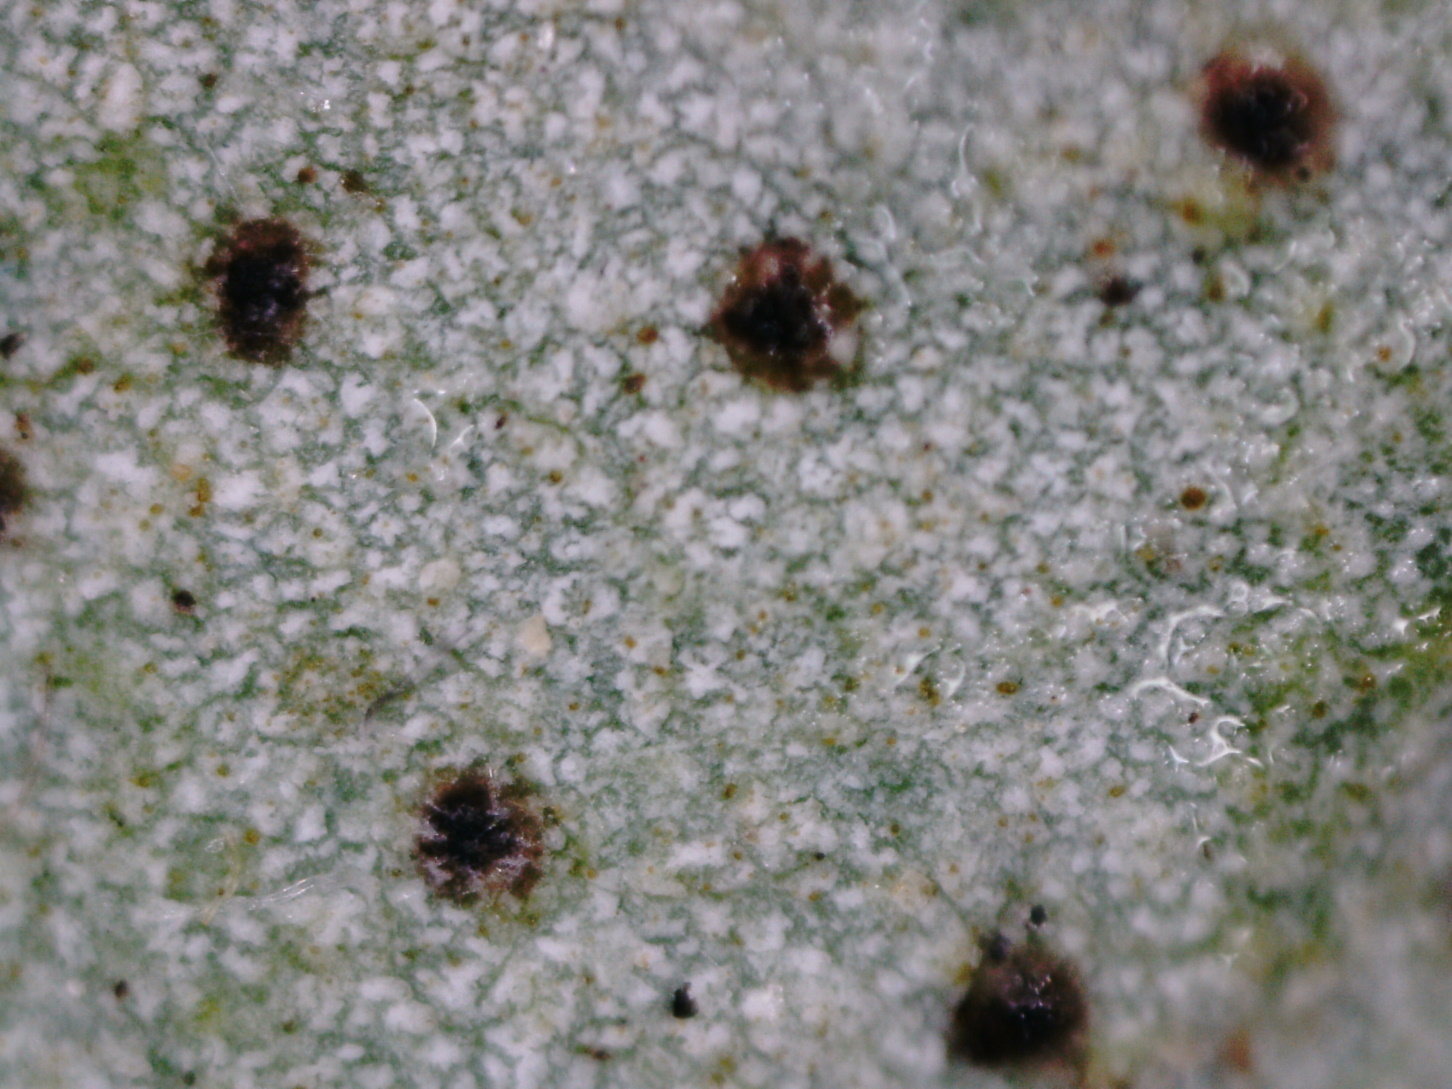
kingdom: Fungi
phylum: Ascomycota
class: Lecanoromycetes
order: Umbilicariales
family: Umbilicariaceae
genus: Umbilicaria
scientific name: Umbilicaria vellea
